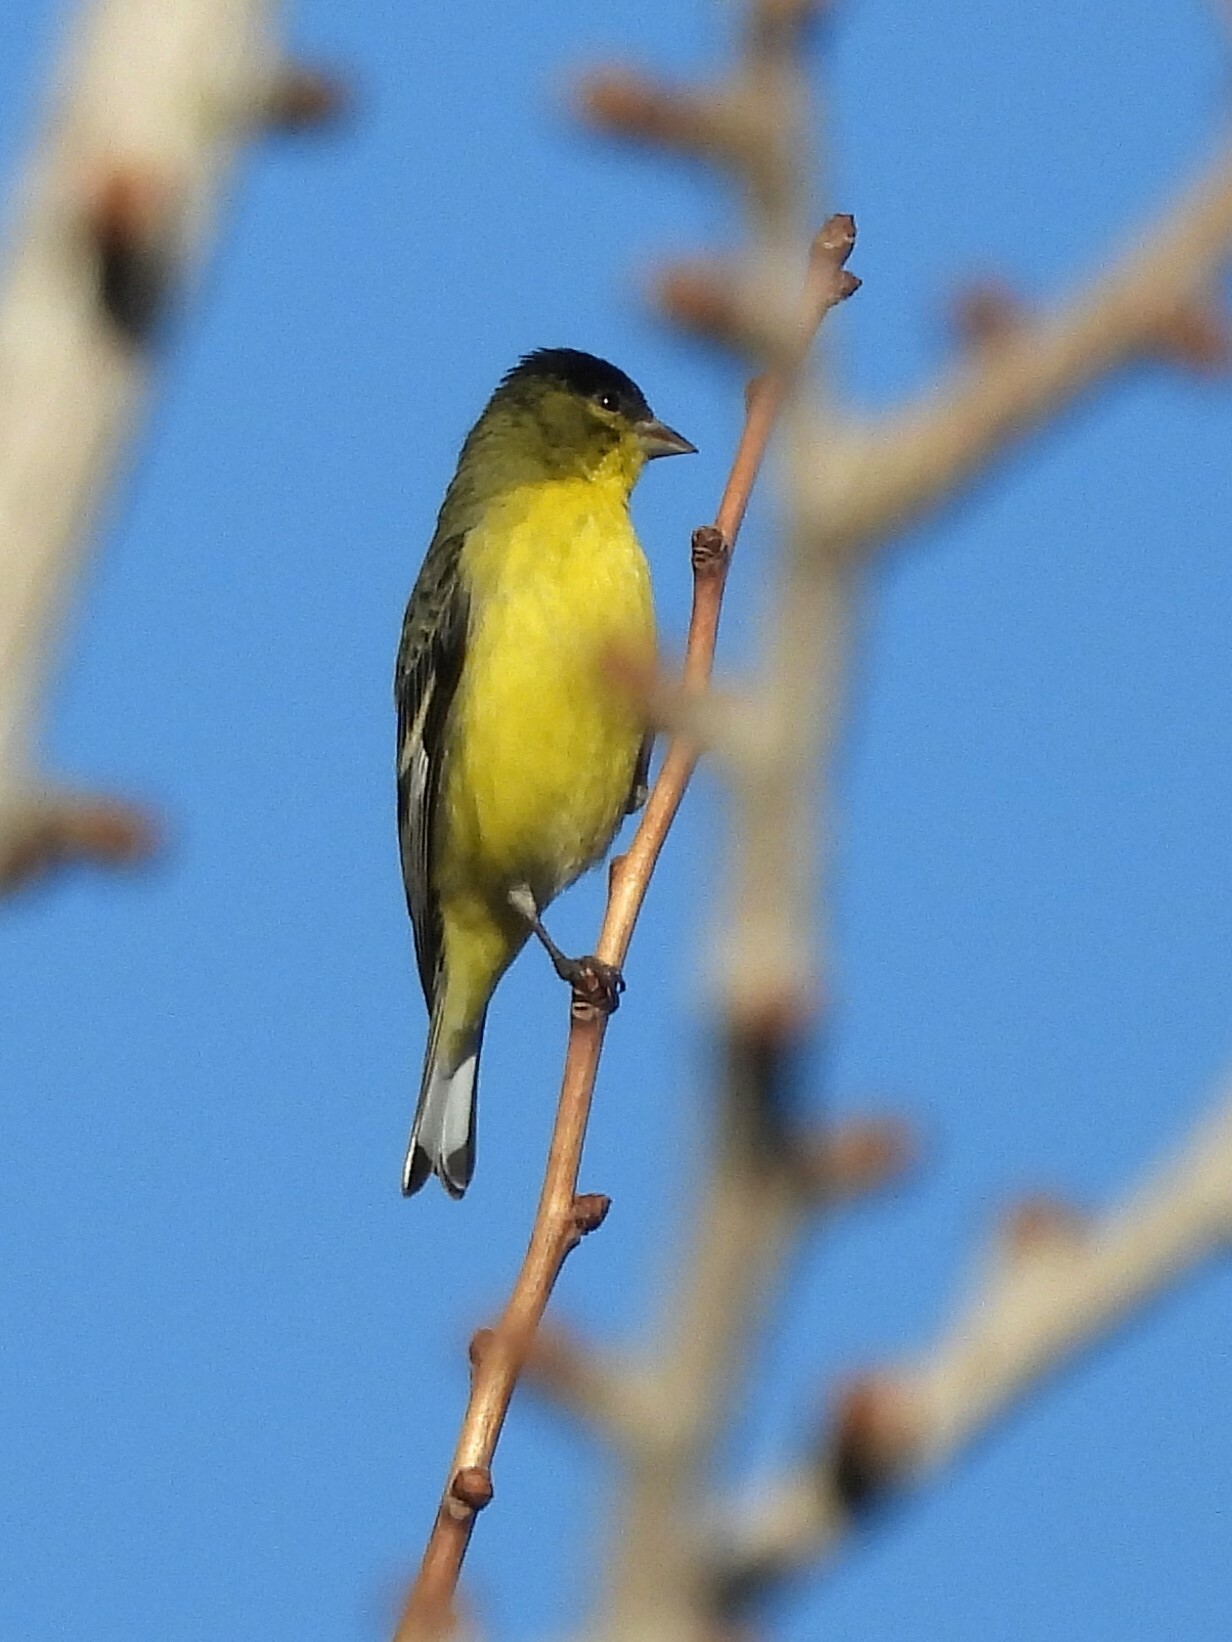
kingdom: Animalia
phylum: Chordata
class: Aves
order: Passeriformes
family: Fringillidae
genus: Spinus
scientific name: Spinus psaltria
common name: Lesser goldfinch
